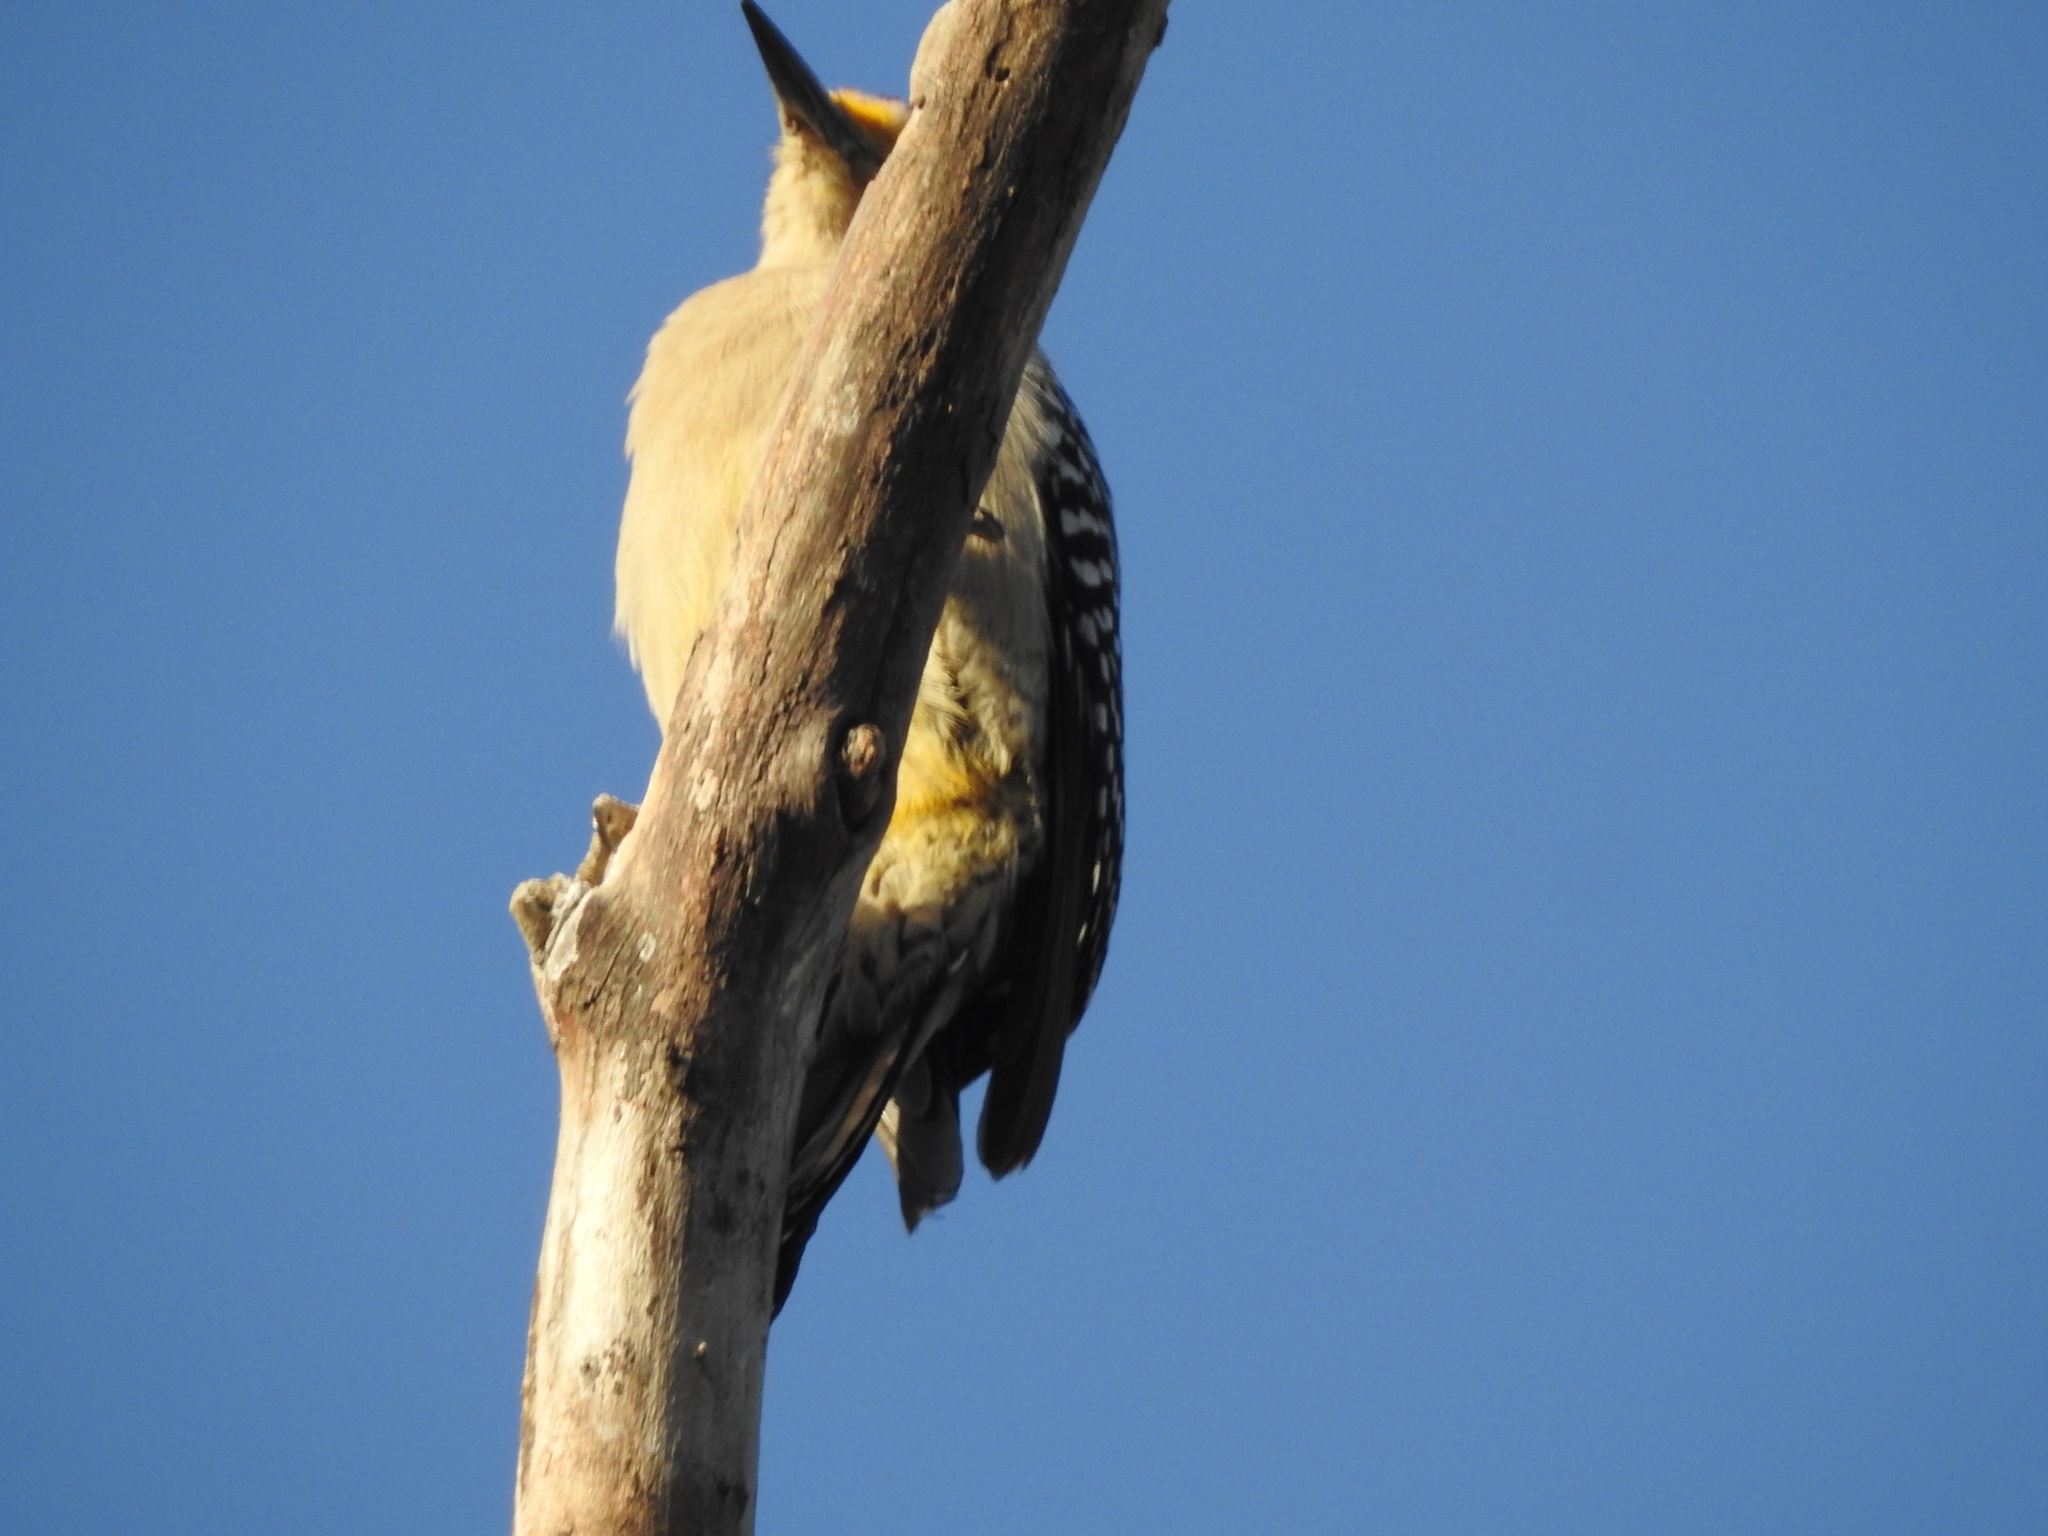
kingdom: Animalia
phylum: Chordata
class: Aves
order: Piciformes
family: Picidae
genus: Melanerpes
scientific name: Melanerpes aurifrons
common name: Golden-fronted woodpecker
